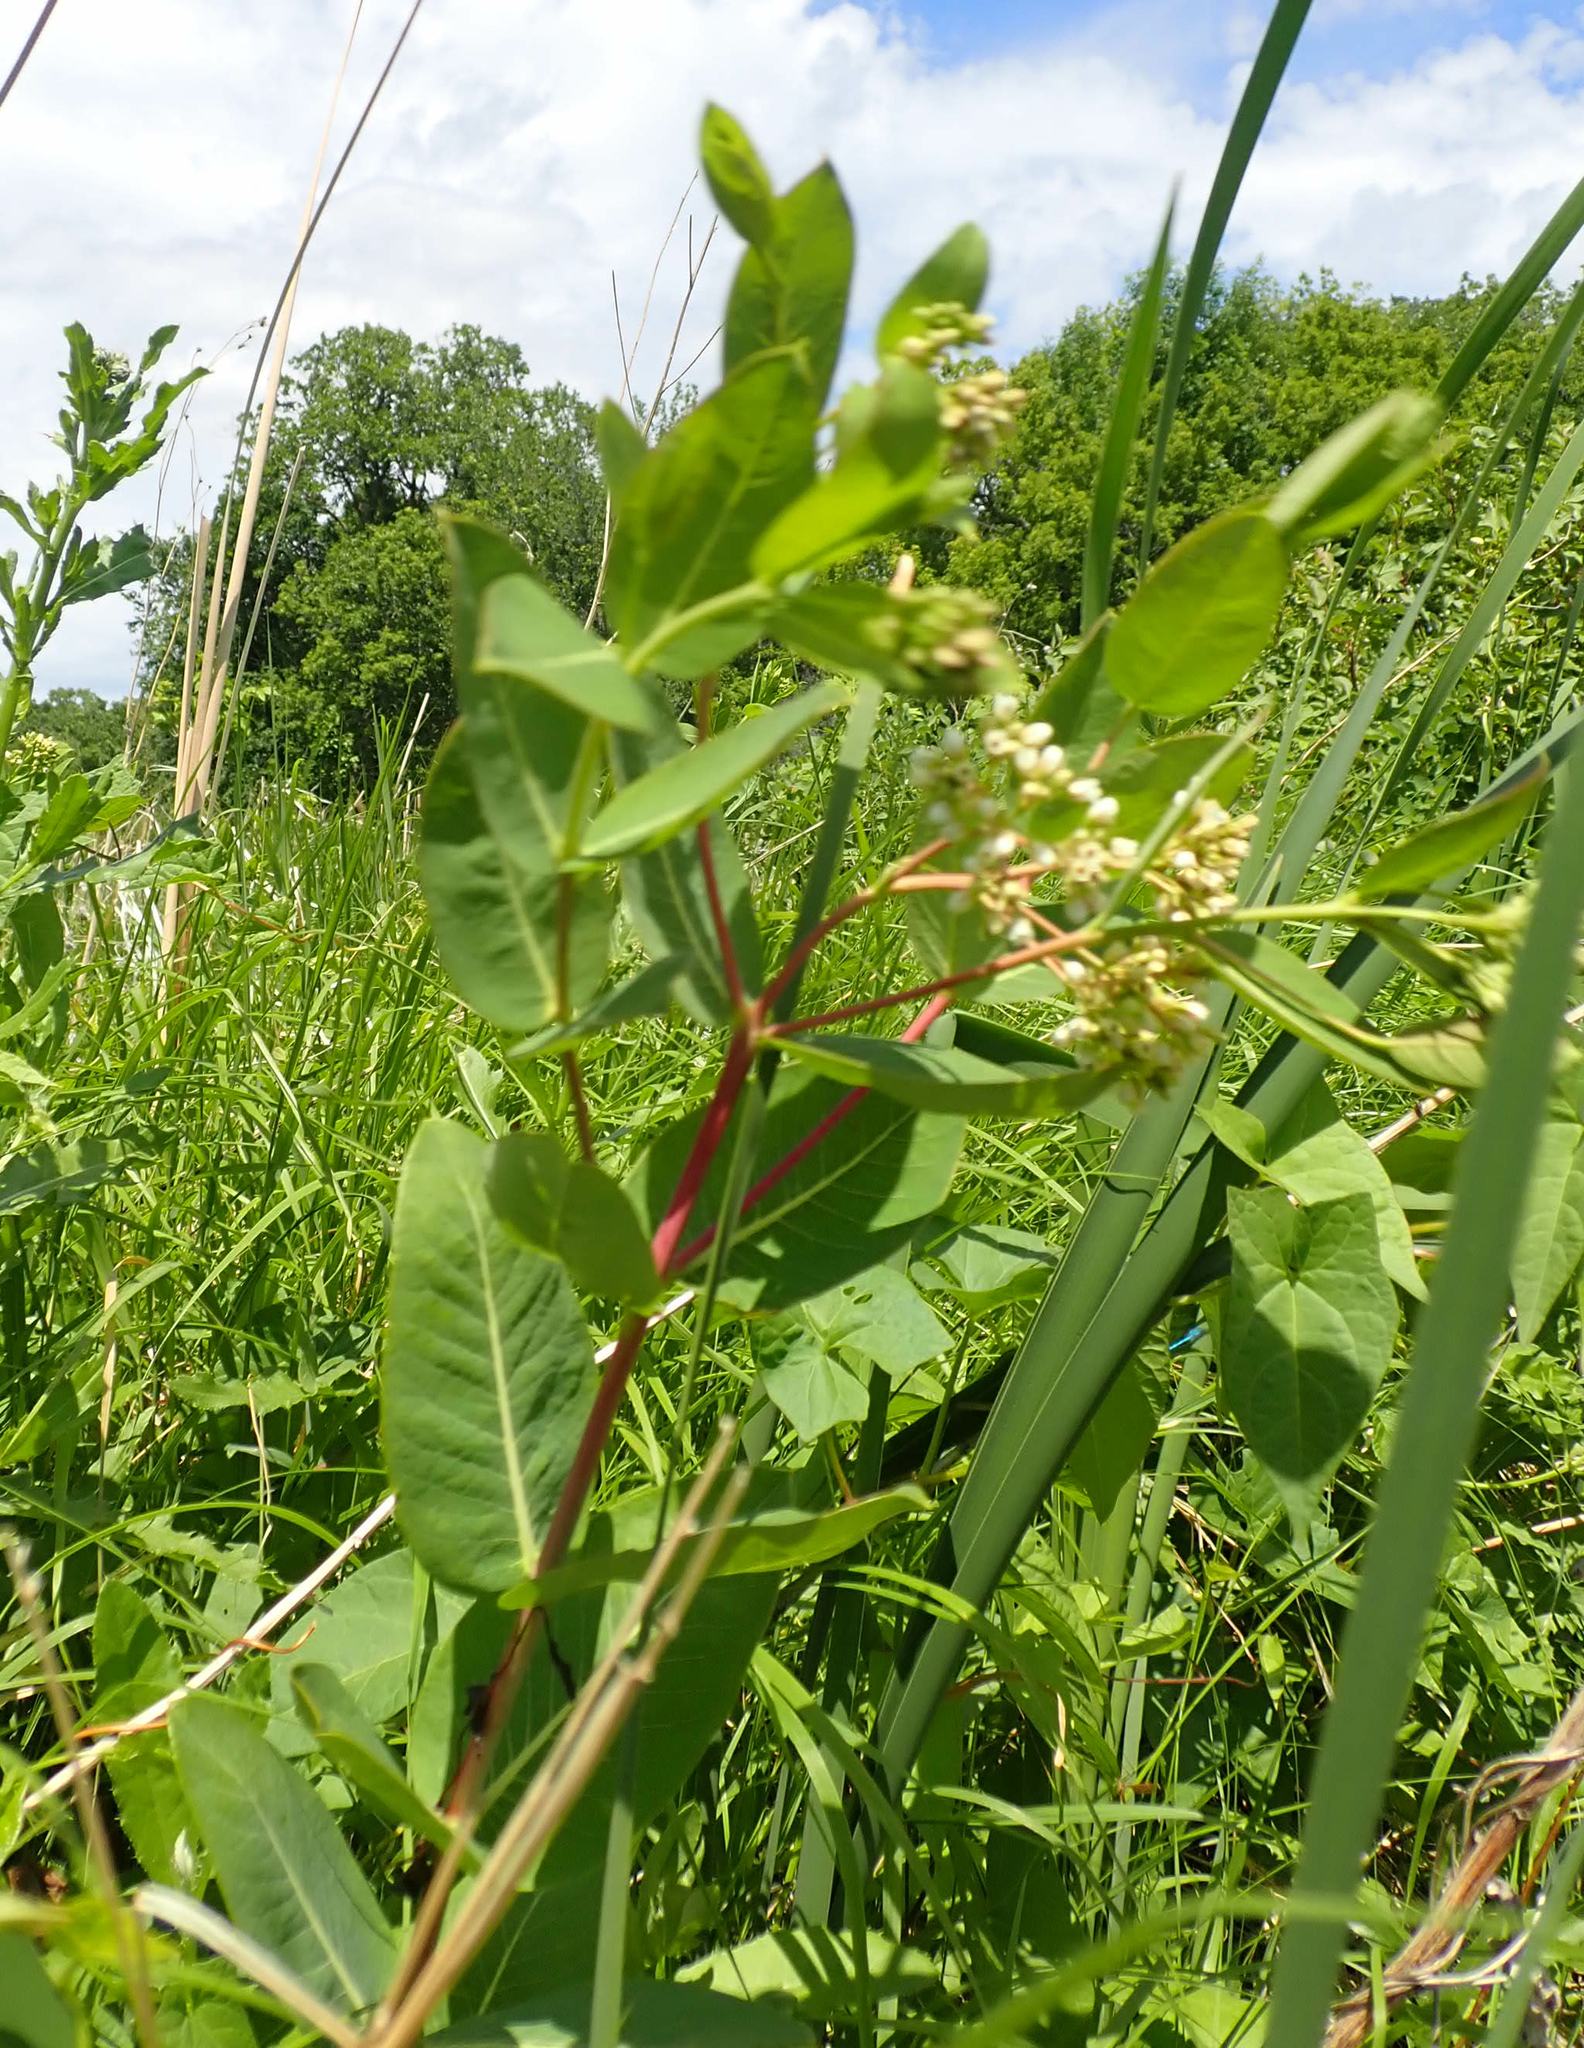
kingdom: Plantae
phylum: Tracheophyta
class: Magnoliopsida
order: Gentianales
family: Apocynaceae
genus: Apocynum
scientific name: Apocynum cannabinum
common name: Hemp dogbane
